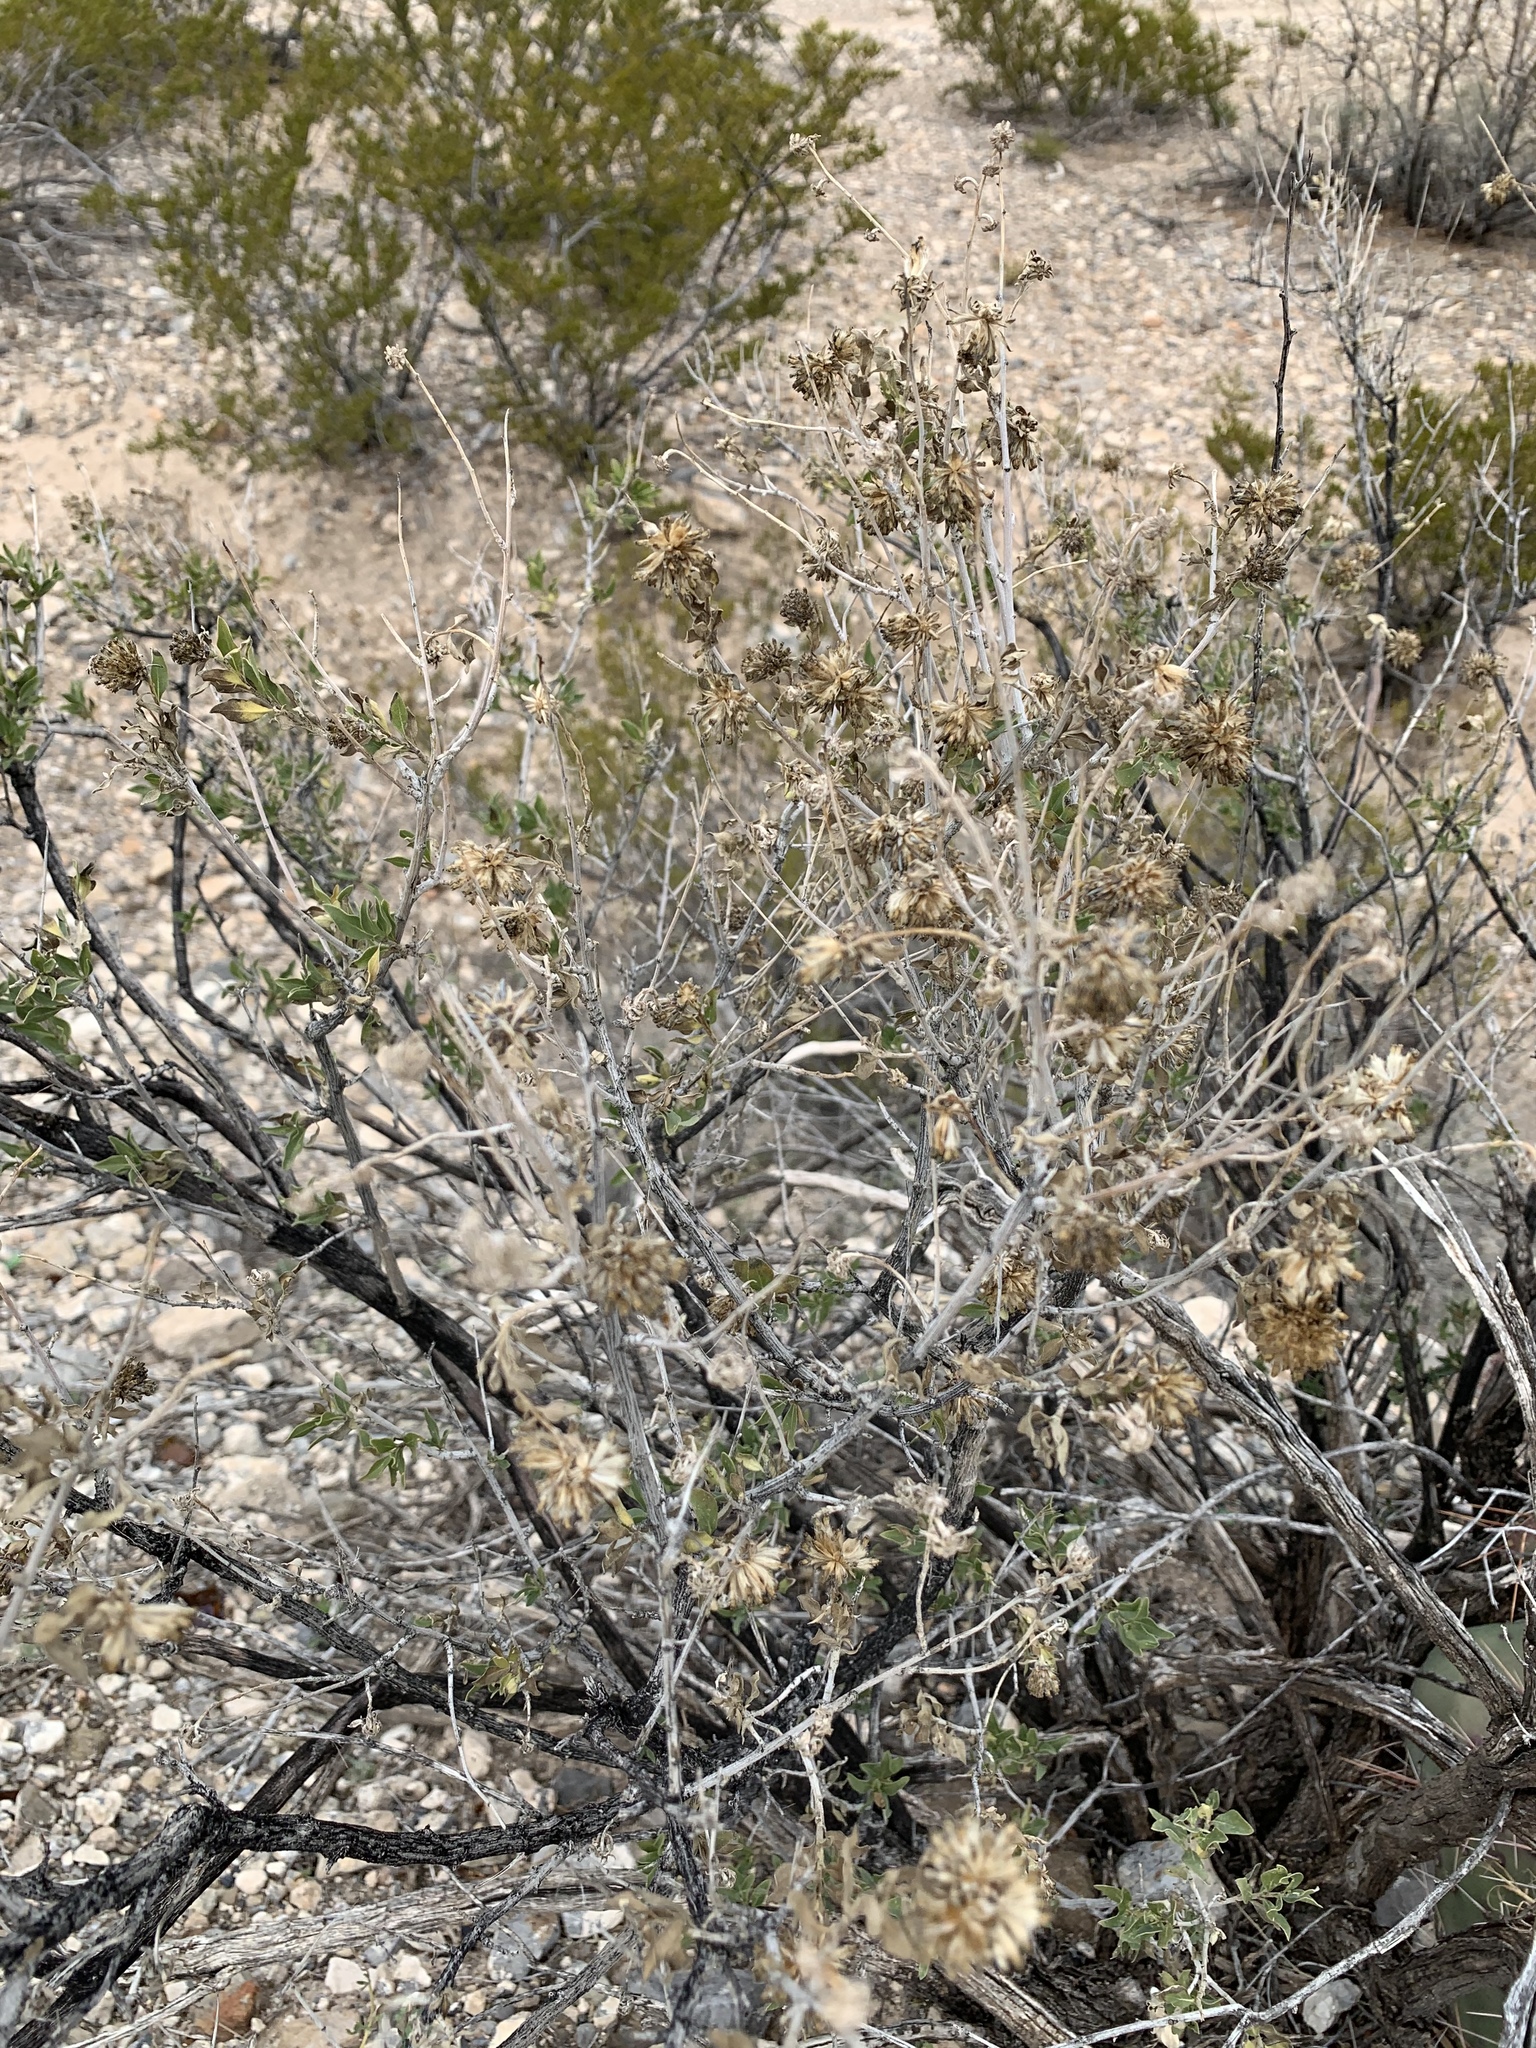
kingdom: Plantae
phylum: Tracheophyta
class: Magnoliopsida
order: Asterales
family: Asteraceae
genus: Flourensia
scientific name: Flourensia cernua
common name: Varnishbush
